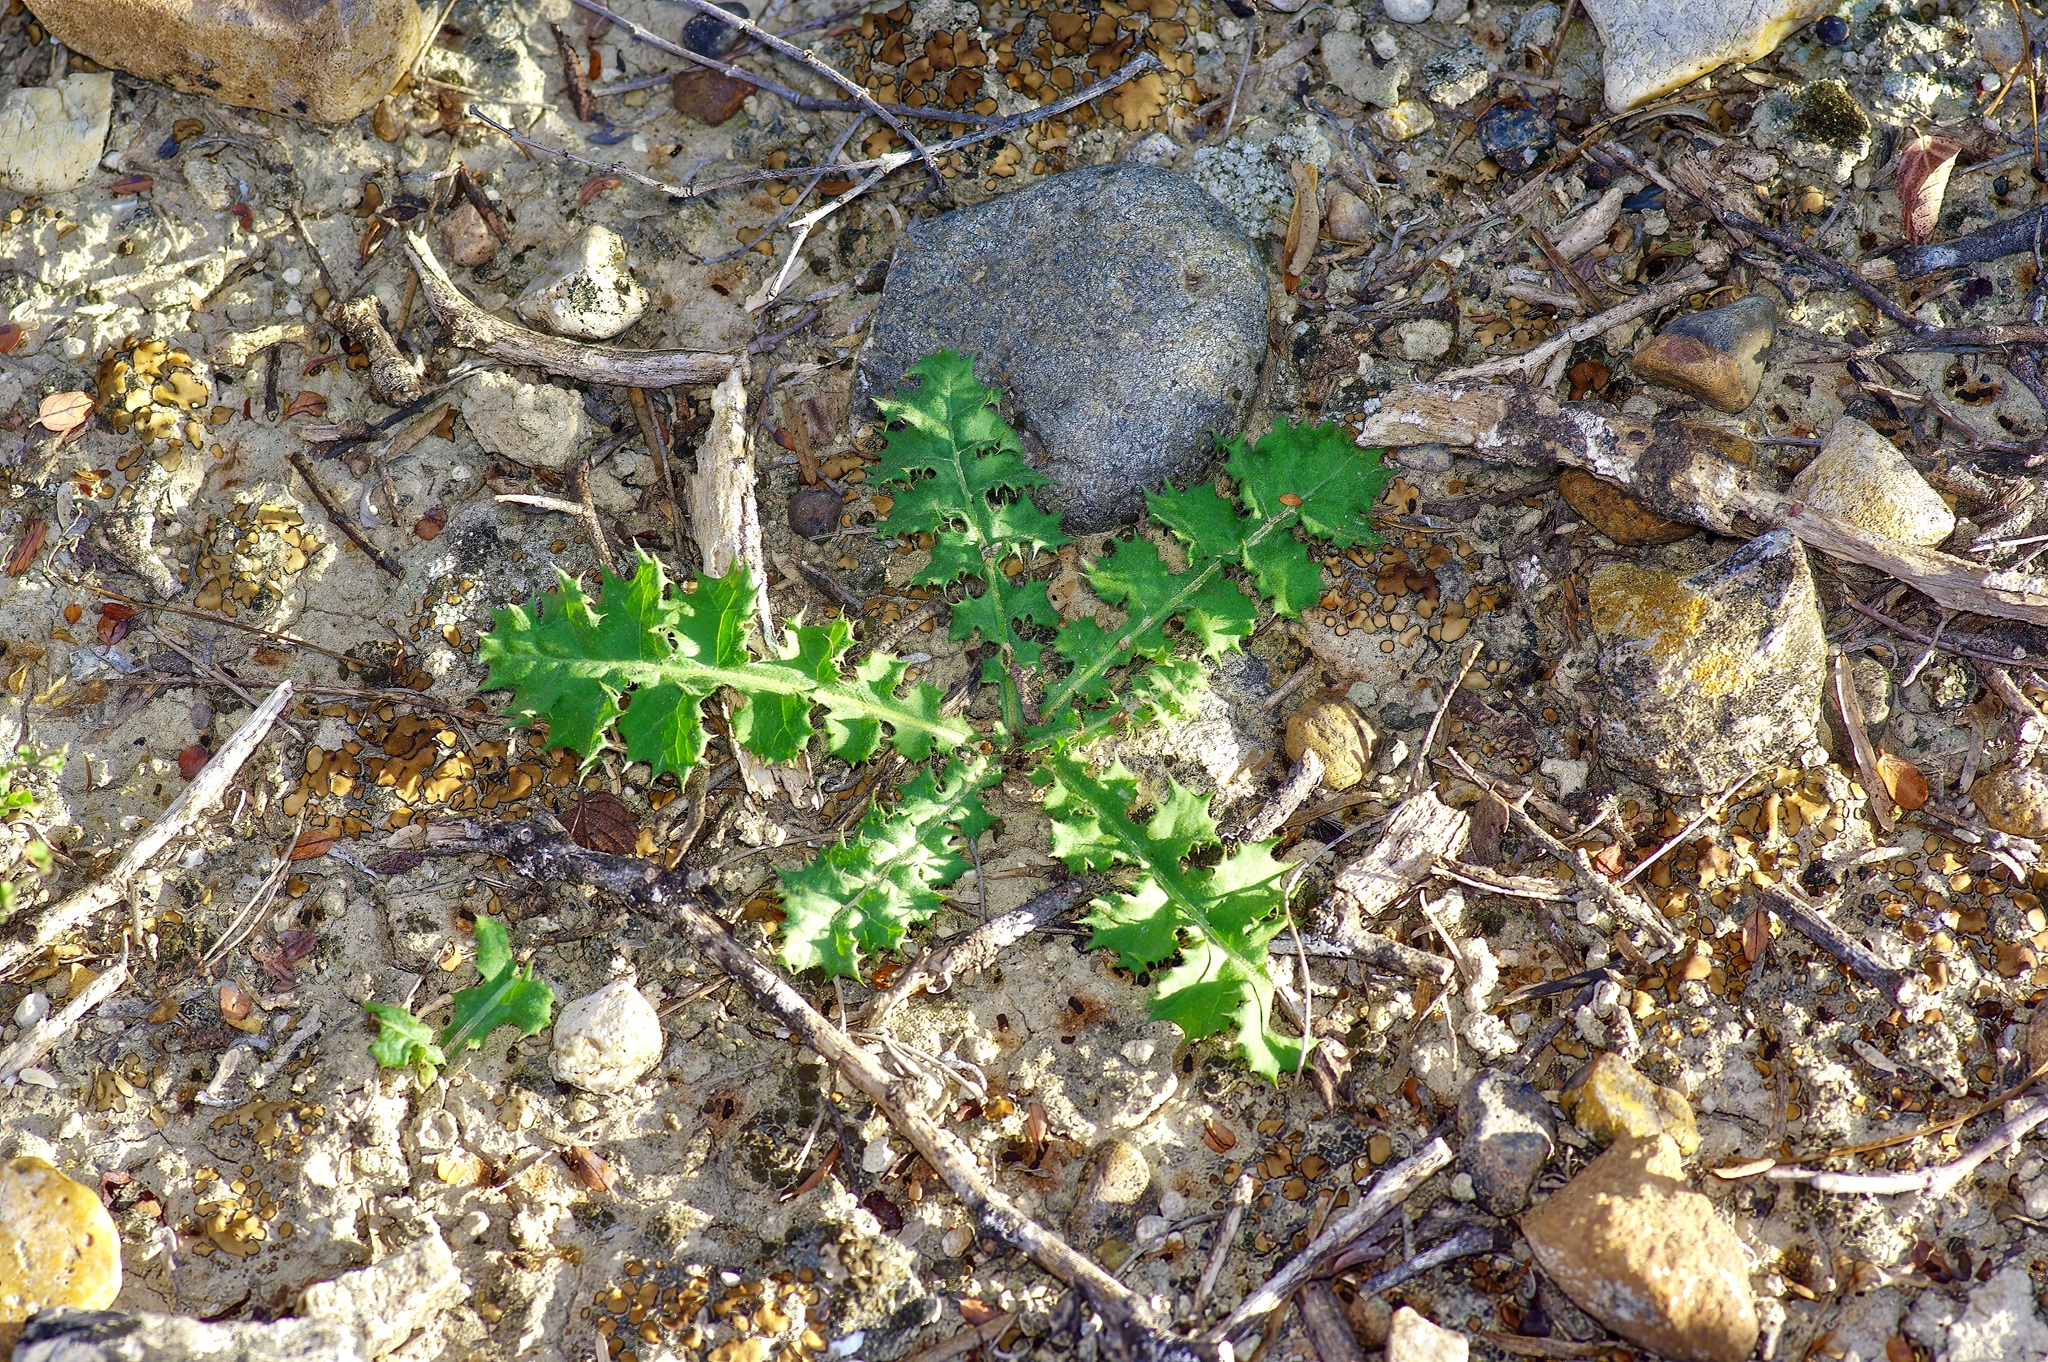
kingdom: Plantae
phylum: Tracheophyta
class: Magnoliopsida
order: Asterales
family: Asteraceae
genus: Acourtia
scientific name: Acourtia runcinata
